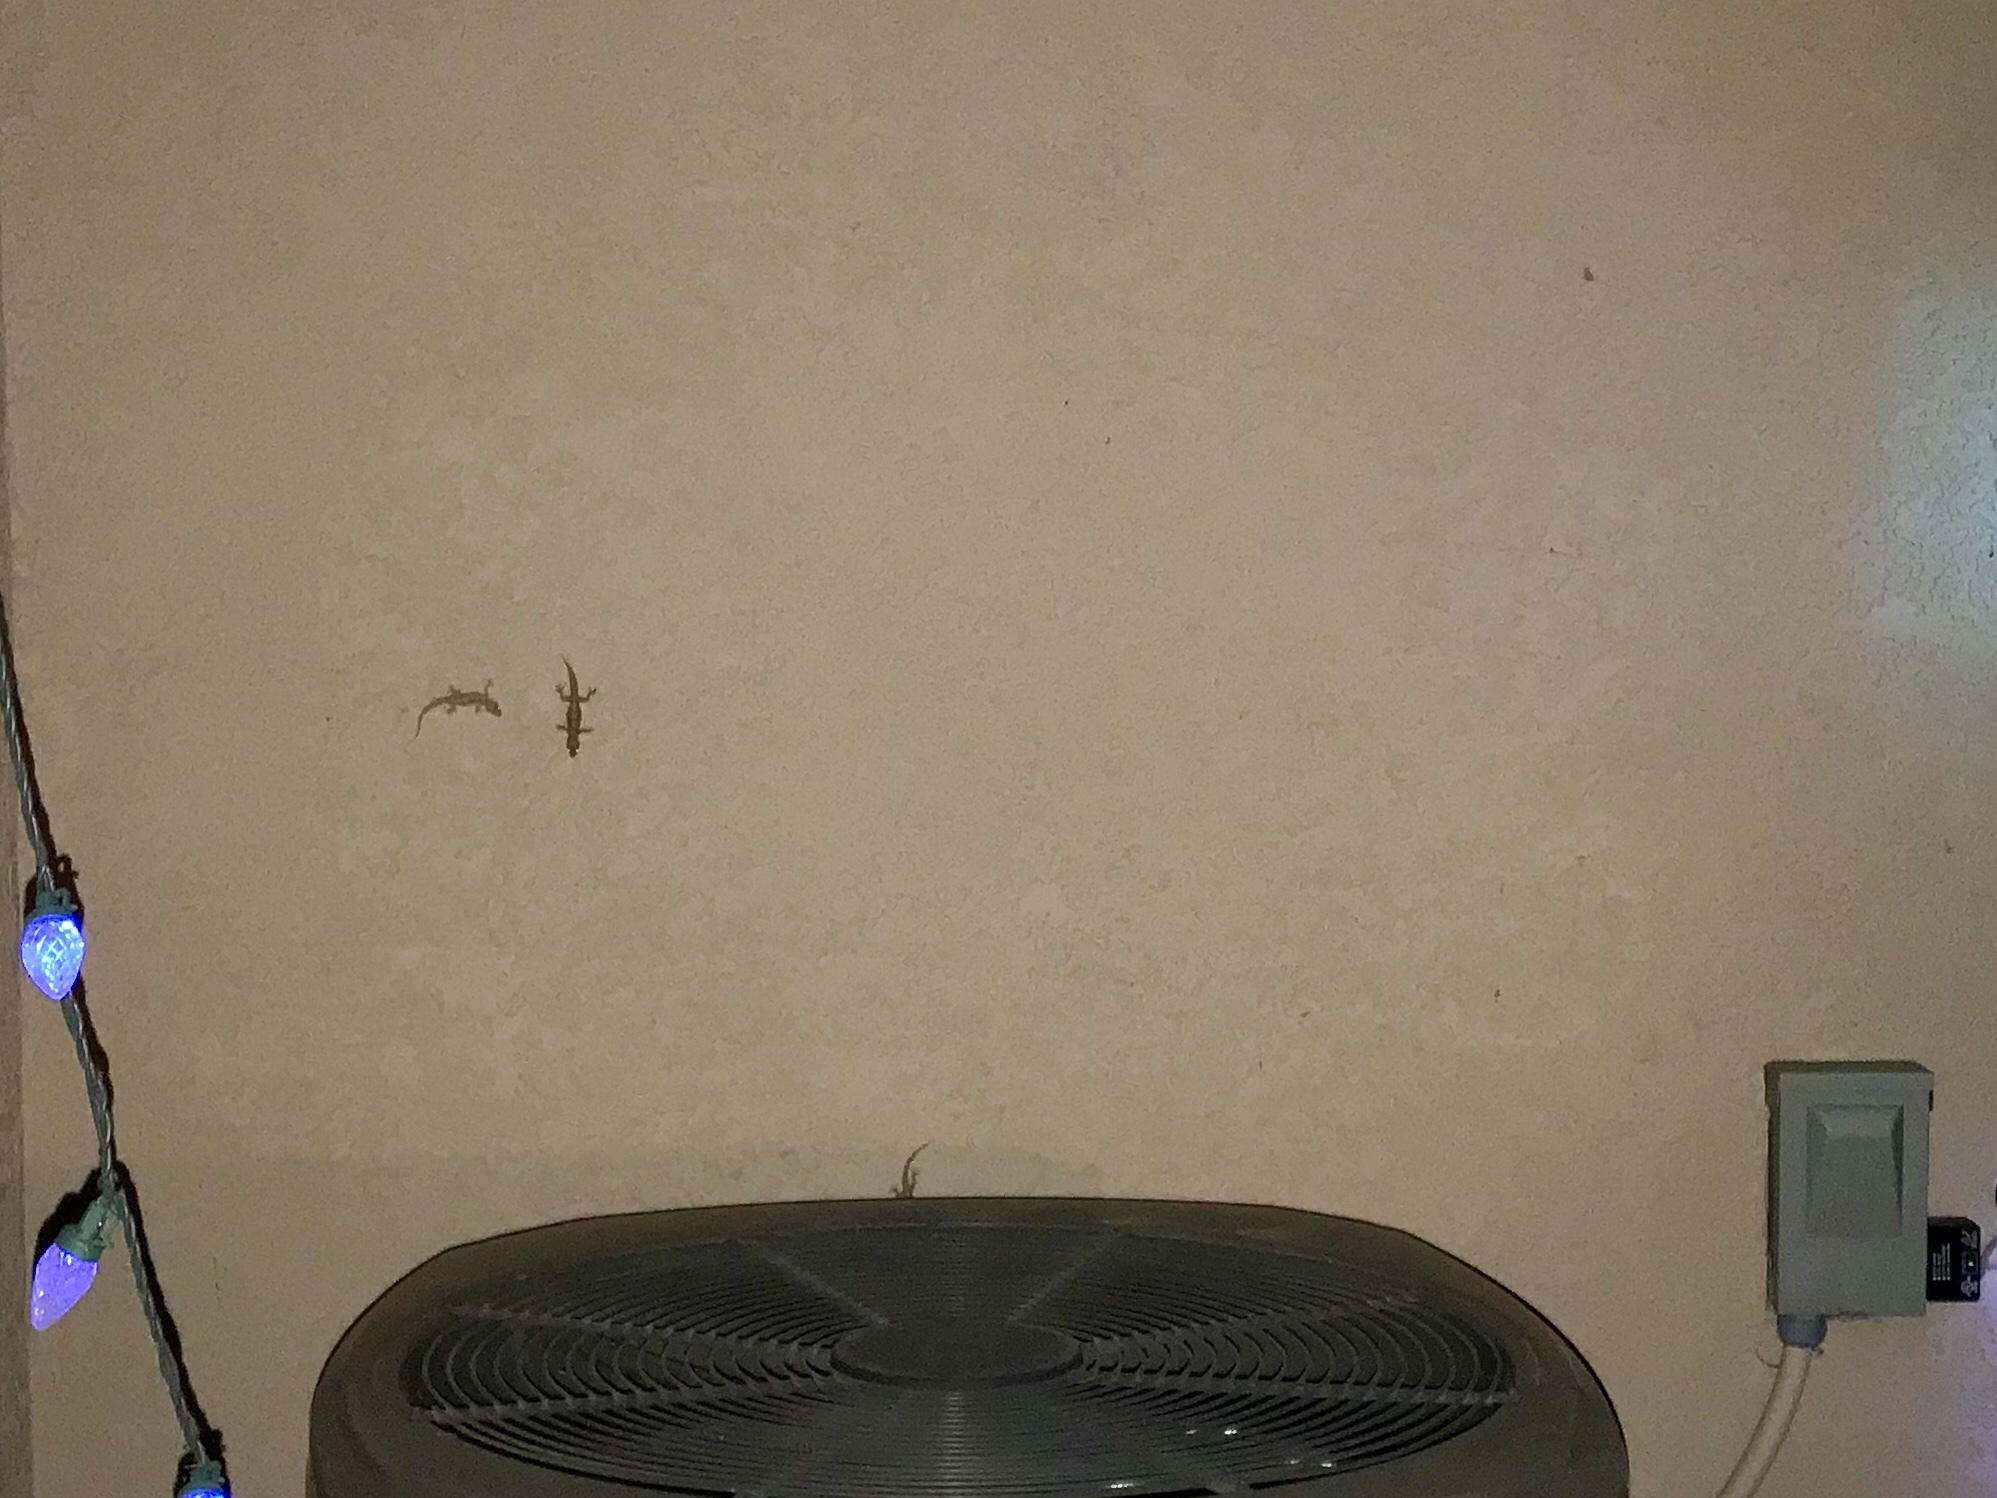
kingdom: Animalia
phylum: Chordata
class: Squamata
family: Gekkonidae
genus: Hemidactylus
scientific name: Hemidactylus turcicus
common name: Turkish gecko
